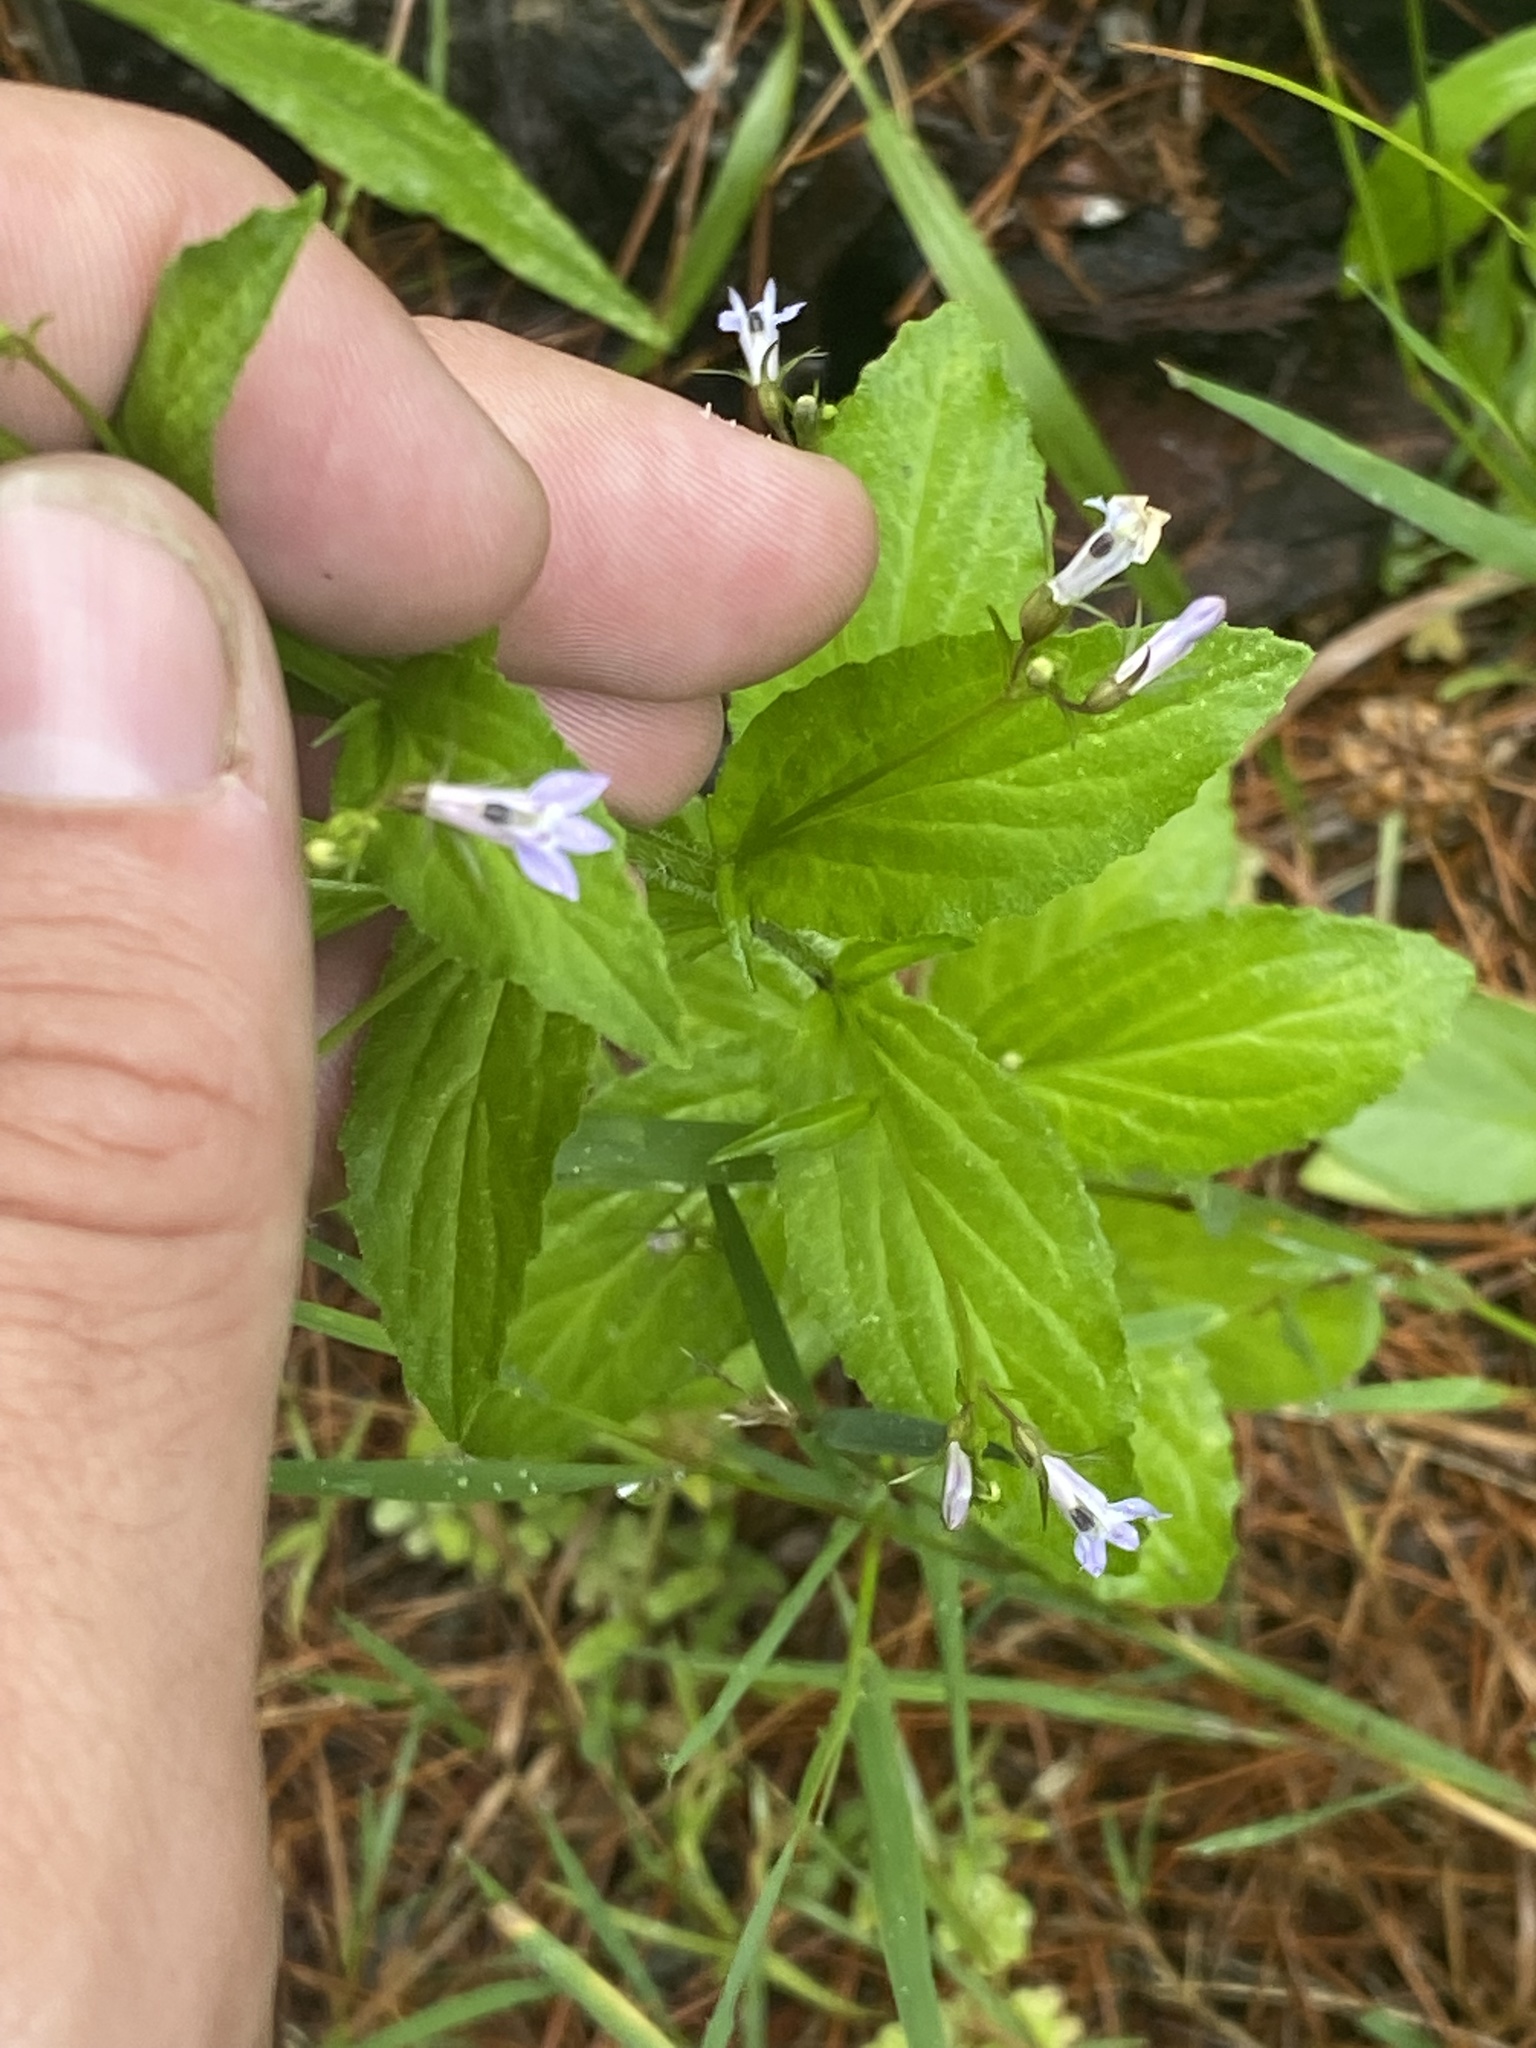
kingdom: Plantae
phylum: Tracheophyta
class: Magnoliopsida
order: Asterales
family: Campanulaceae
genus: Lobelia
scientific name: Lobelia inflata
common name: Indian tobacco
